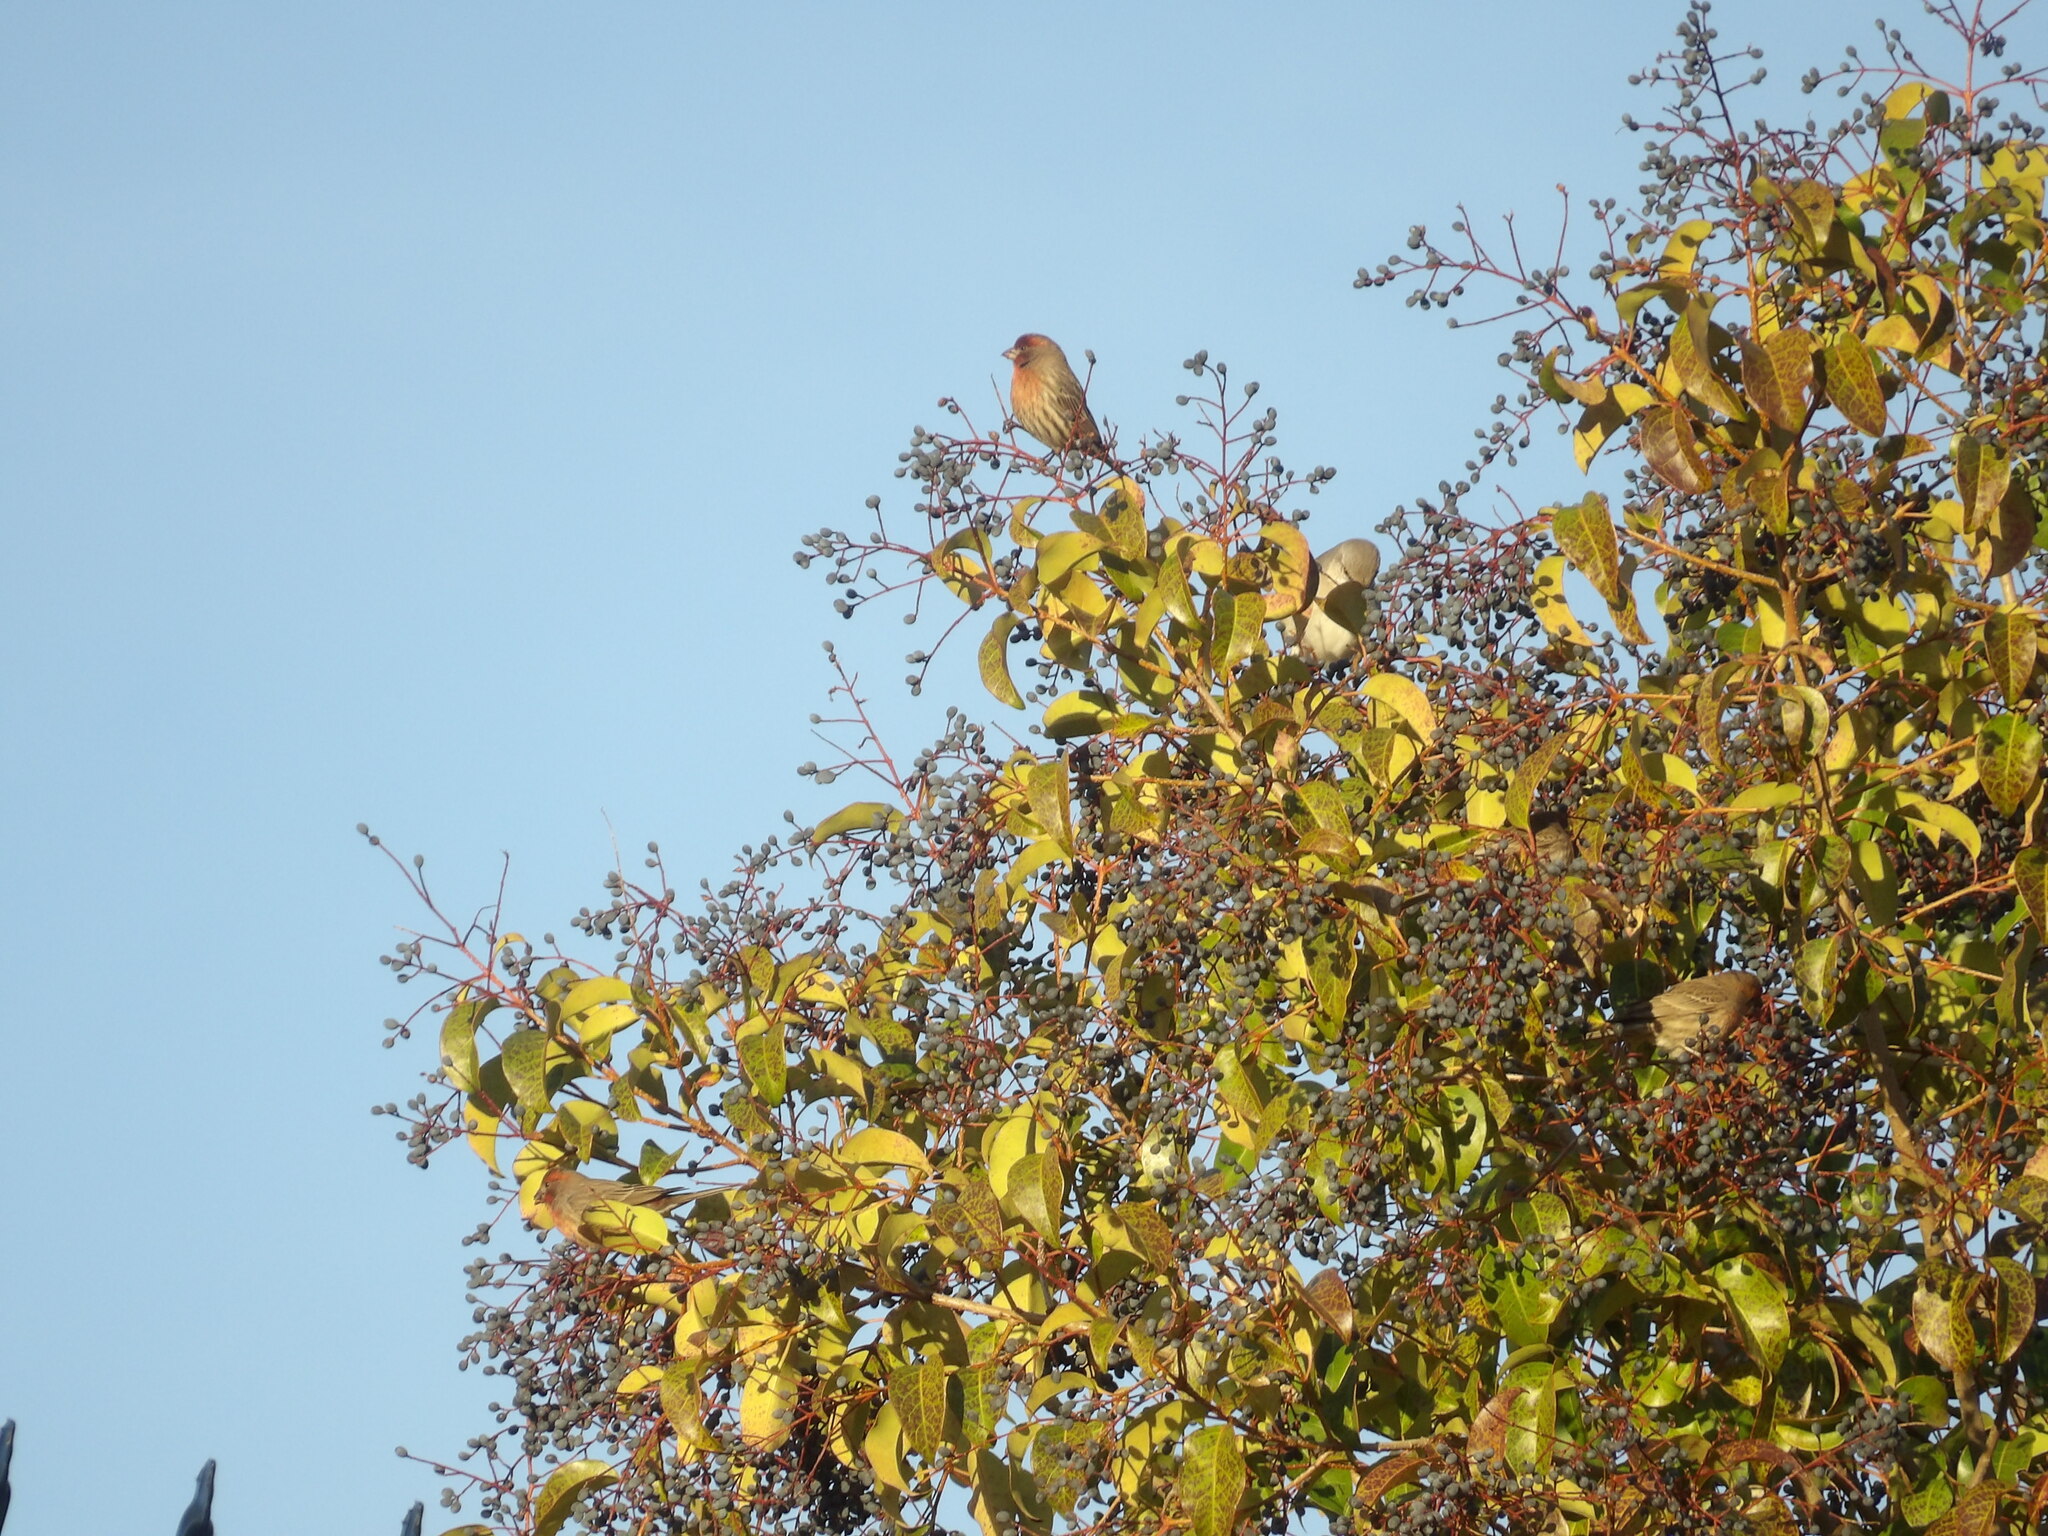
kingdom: Animalia
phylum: Chordata
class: Aves
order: Passeriformes
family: Fringillidae
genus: Haemorhous
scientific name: Haemorhous mexicanus
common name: House finch
